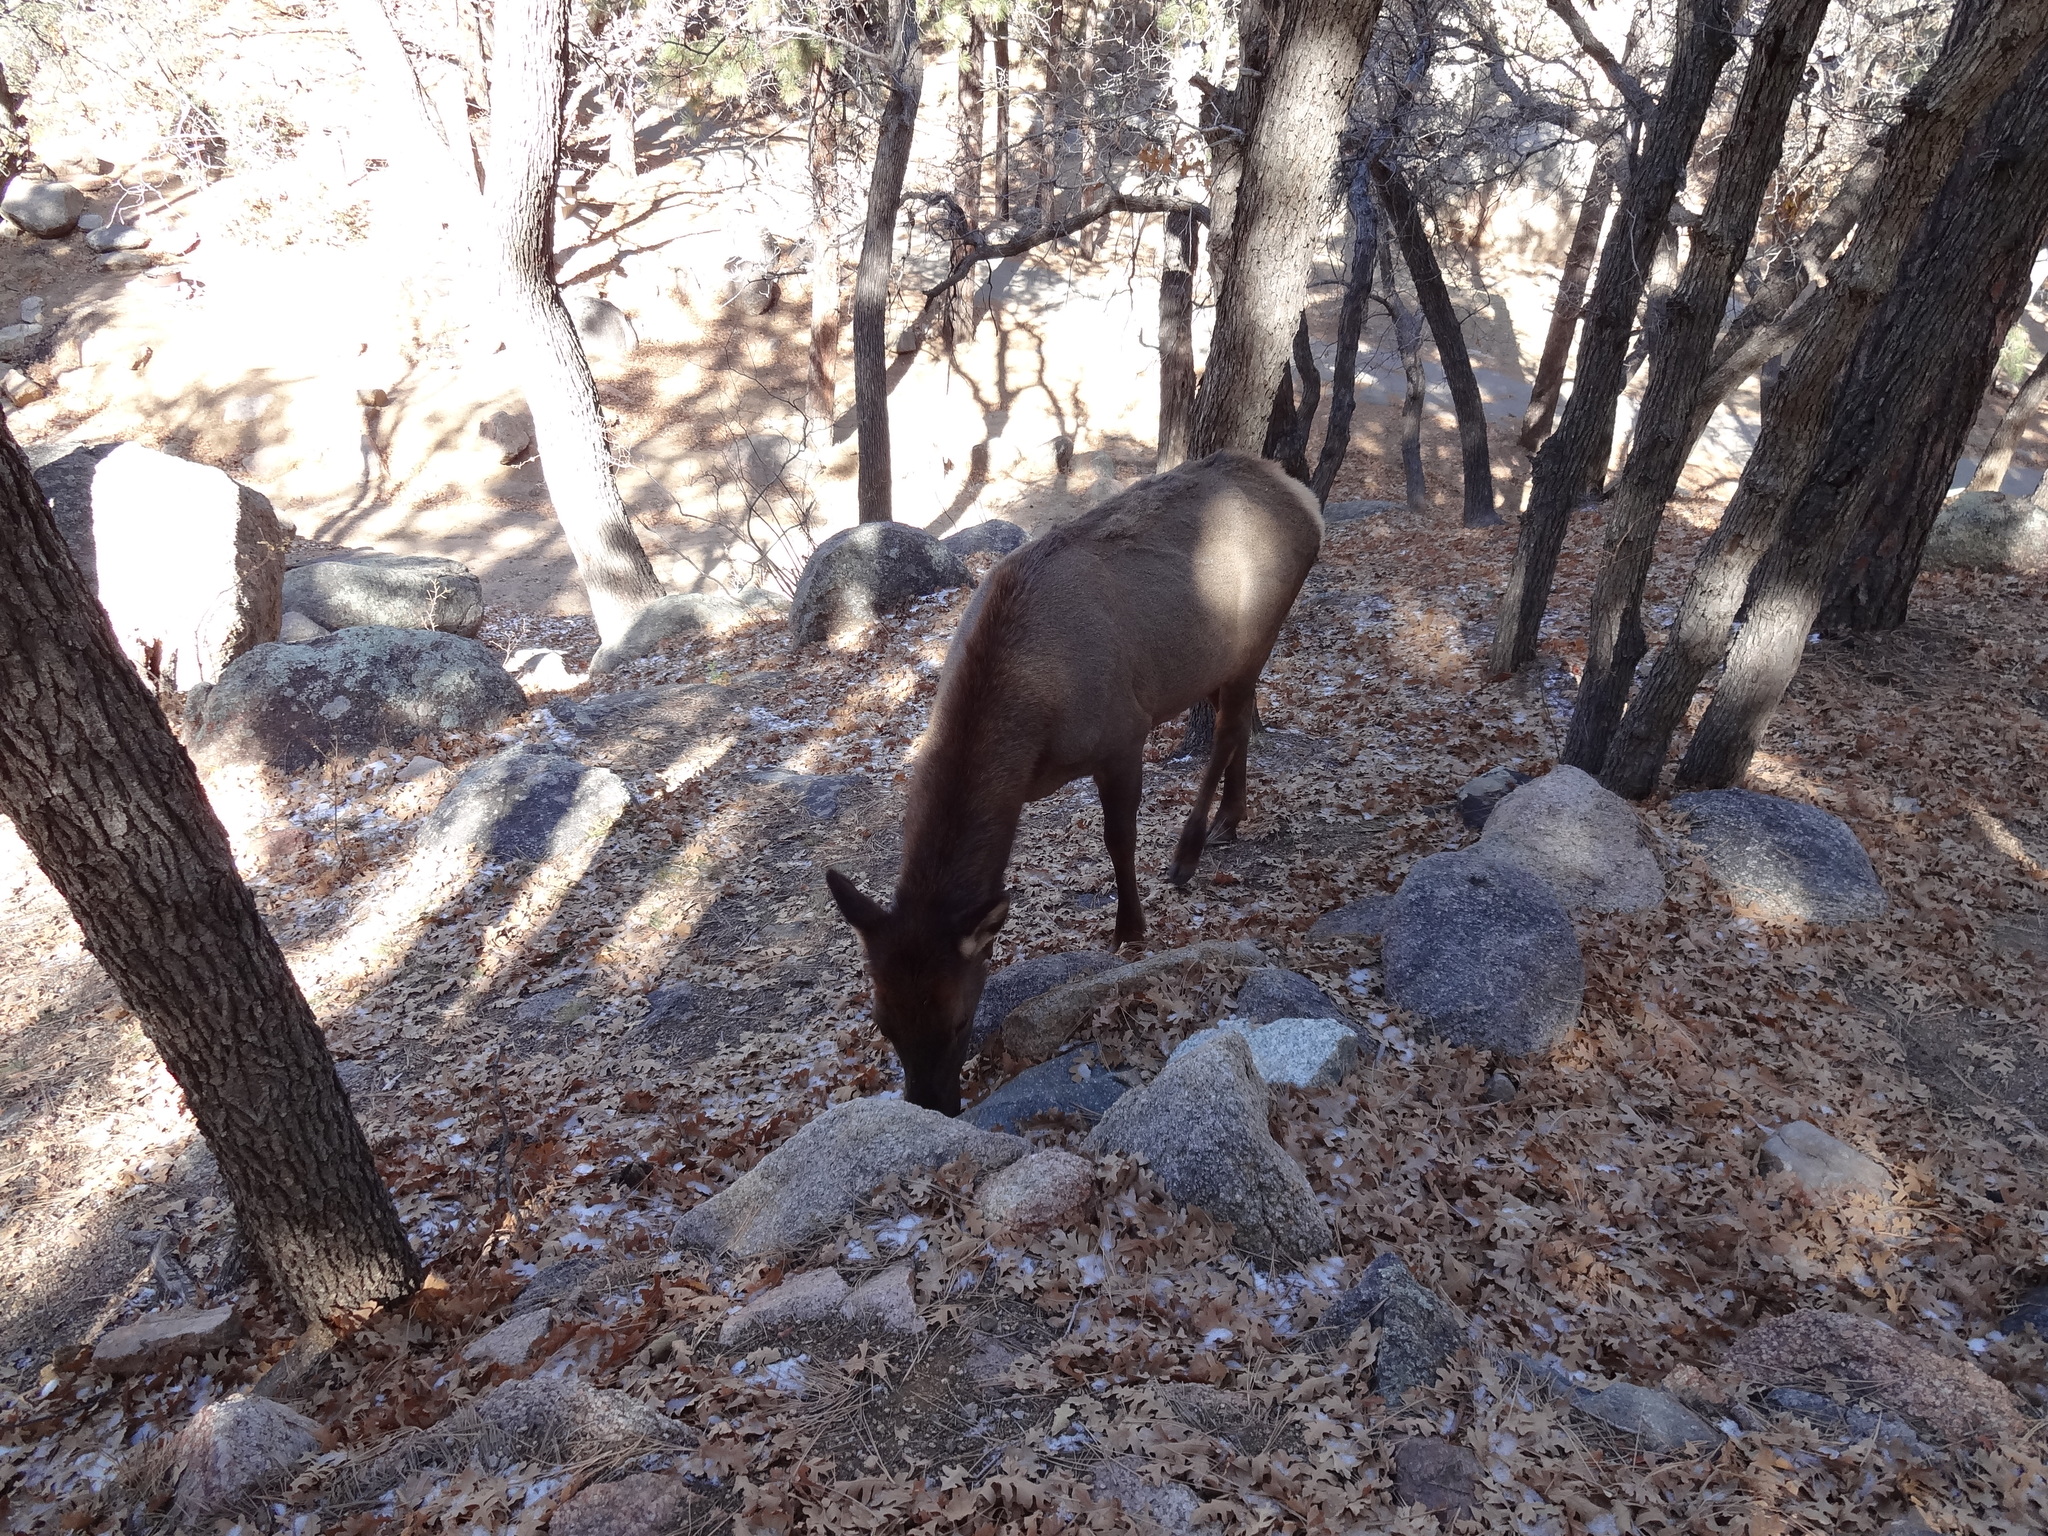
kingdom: Animalia
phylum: Chordata
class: Mammalia
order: Artiodactyla
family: Cervidae
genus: Cervus
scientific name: Cervus elaphus
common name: Red deer
